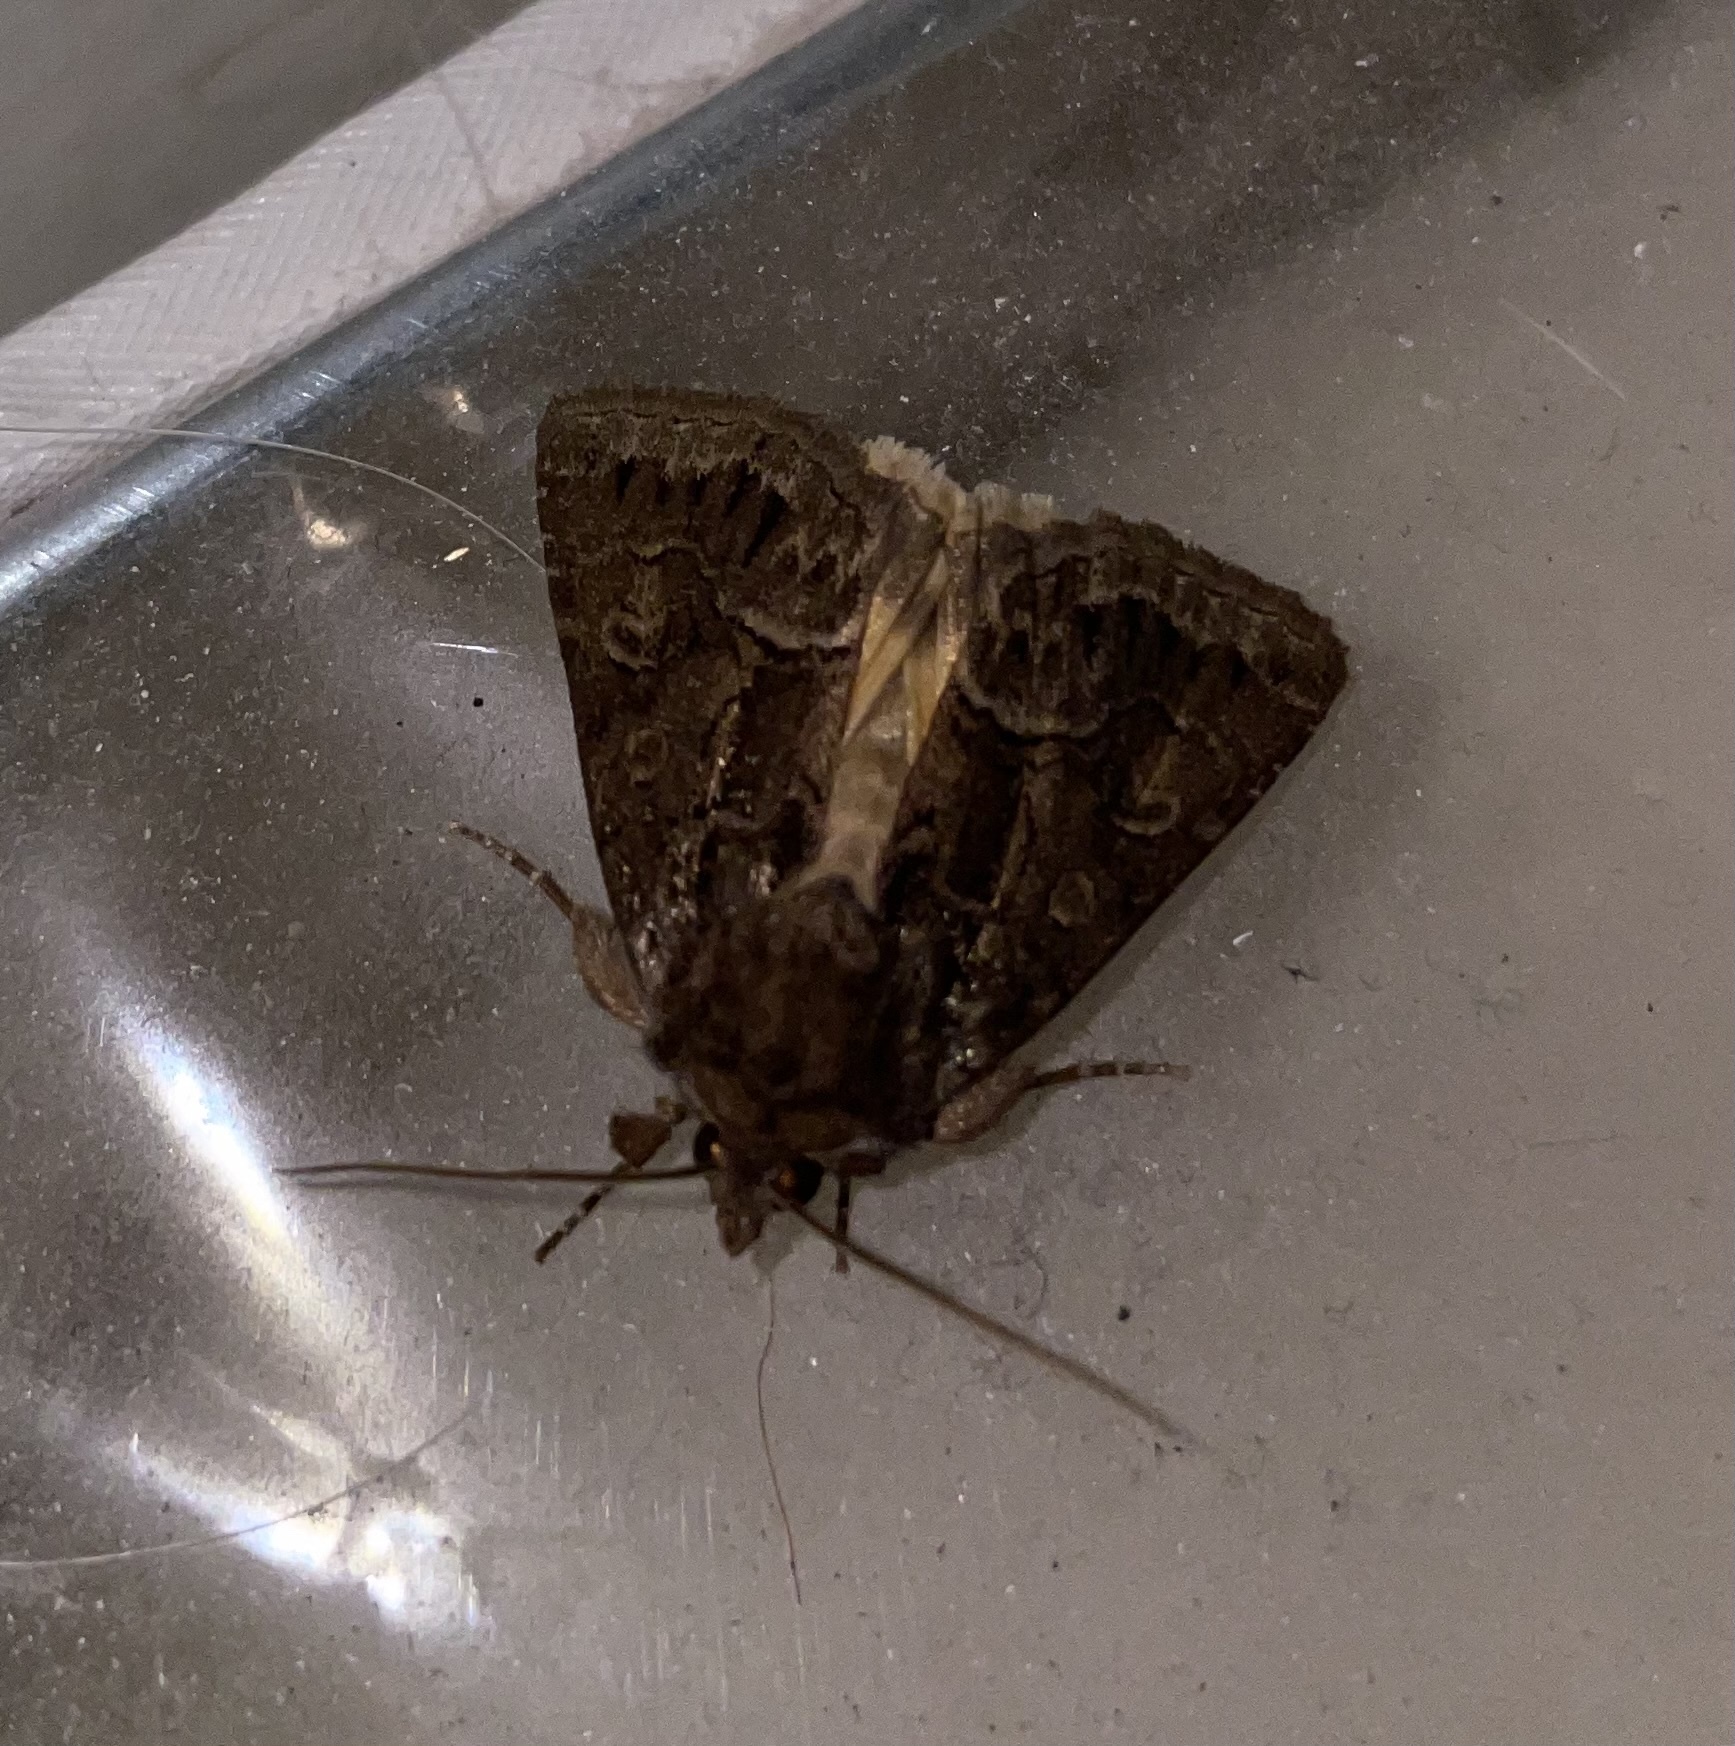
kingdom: Animalia
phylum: Arthropoda
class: Insecta
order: Lepidoptera
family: Noctuidae
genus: Thalpophila
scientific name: Thalpophila matura
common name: Straw underwing
